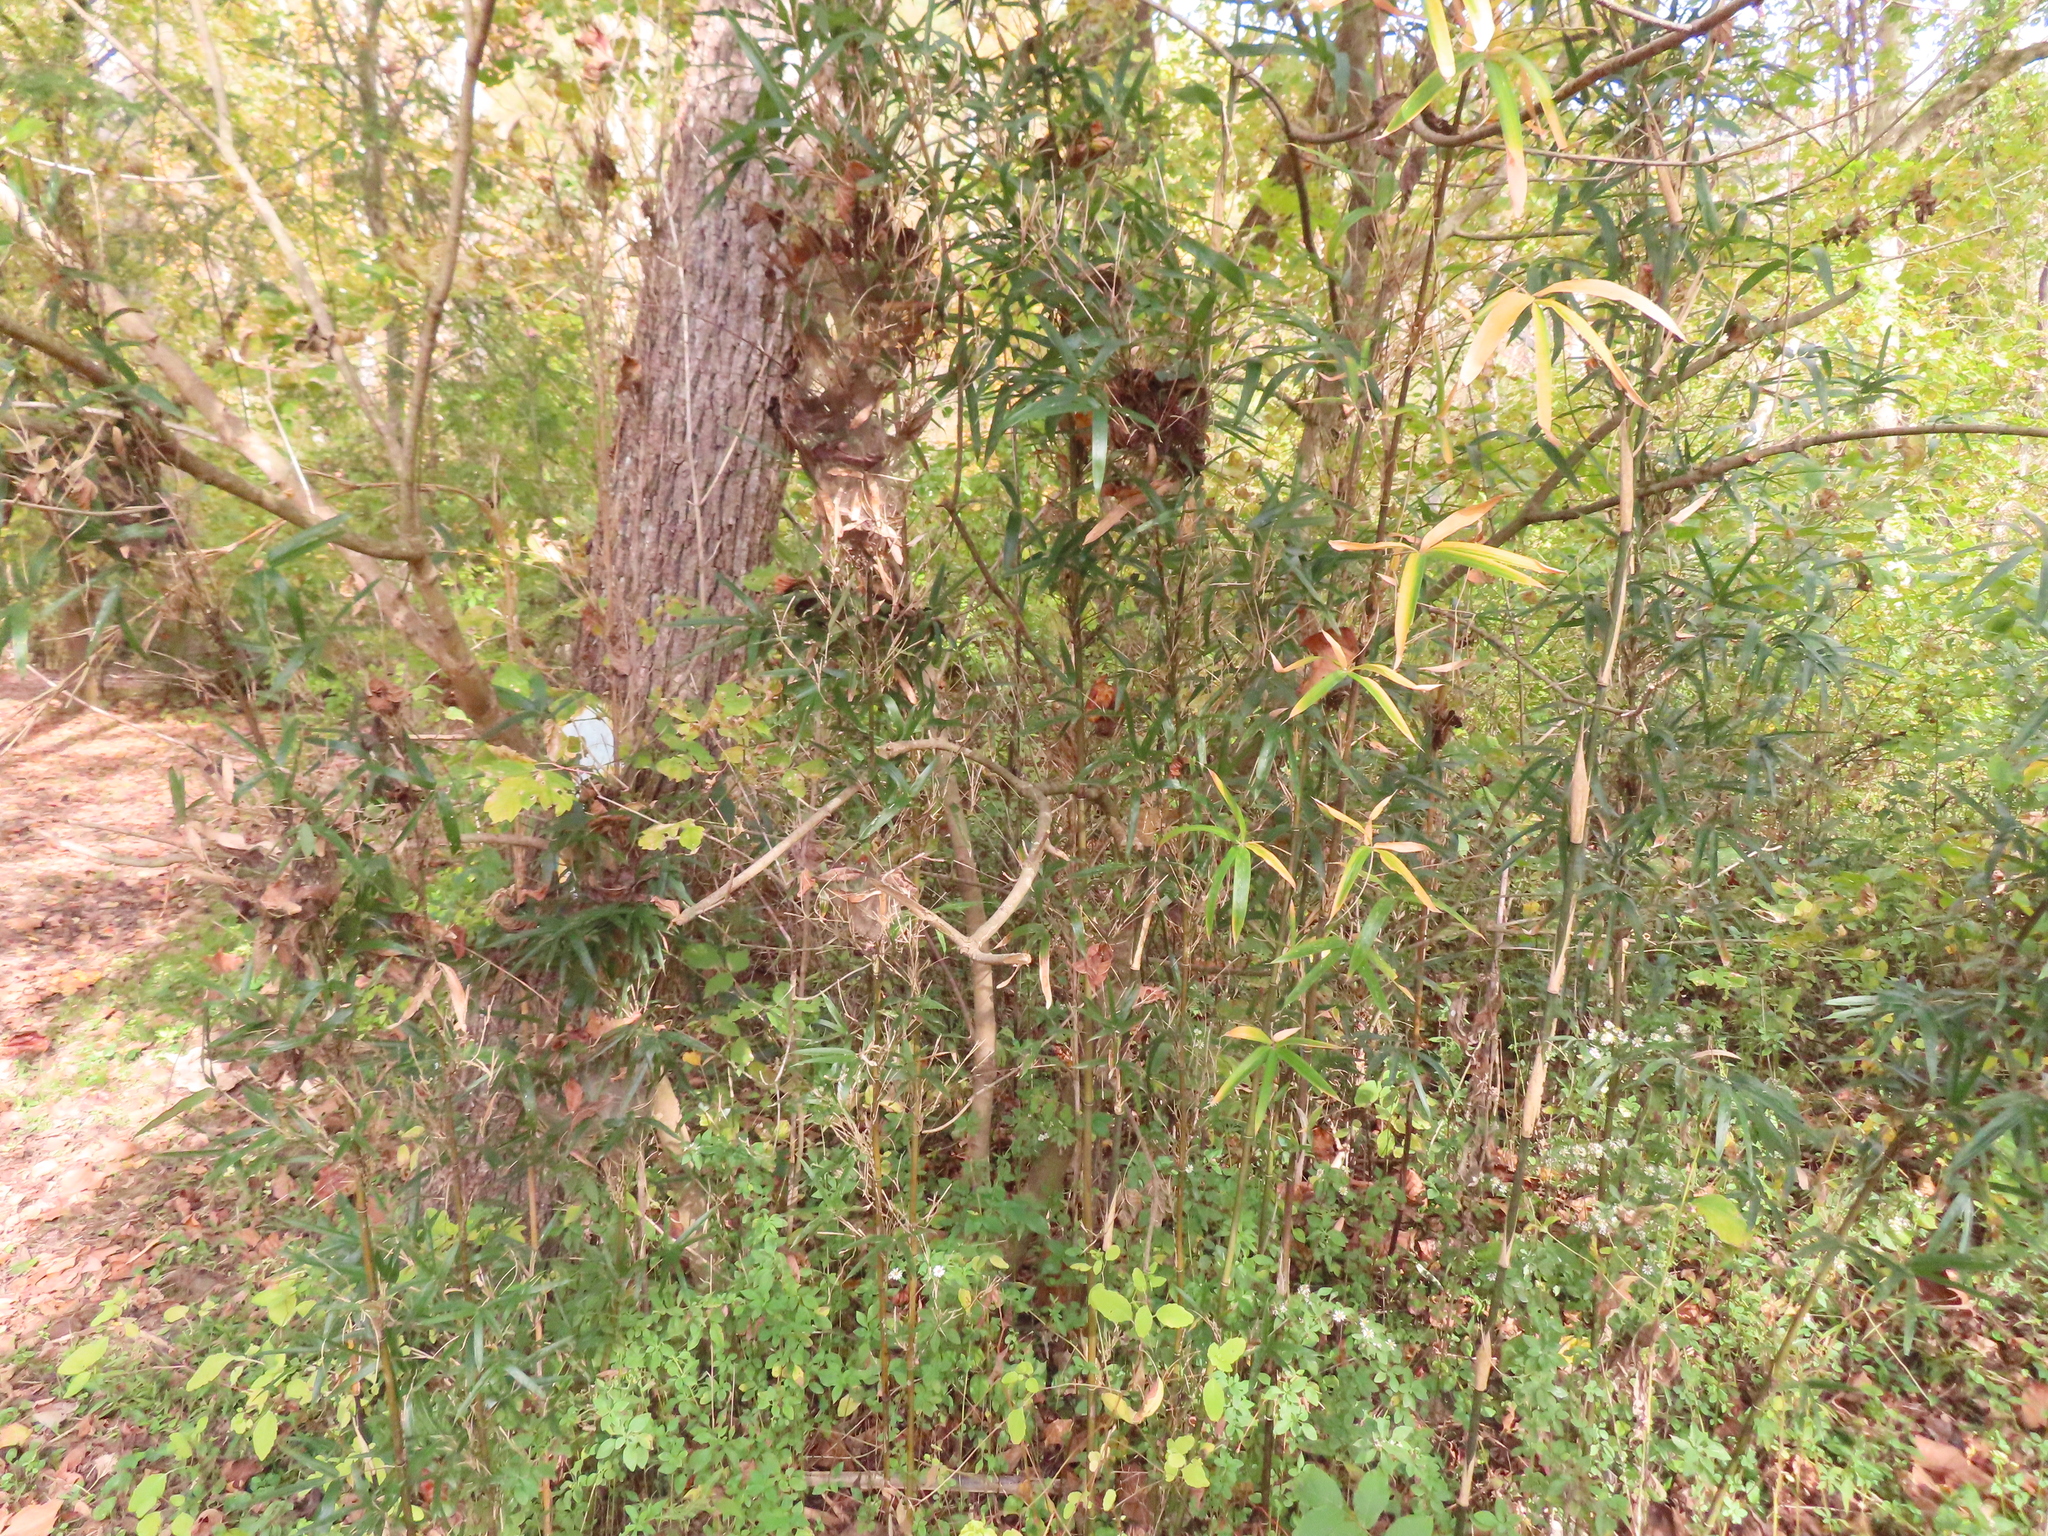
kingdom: Plantae
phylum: Tracheophyta
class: Liliopsida
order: Poales
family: Poaceae
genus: Arundinaria
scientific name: Arundinaria gigantea
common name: Giant cane
